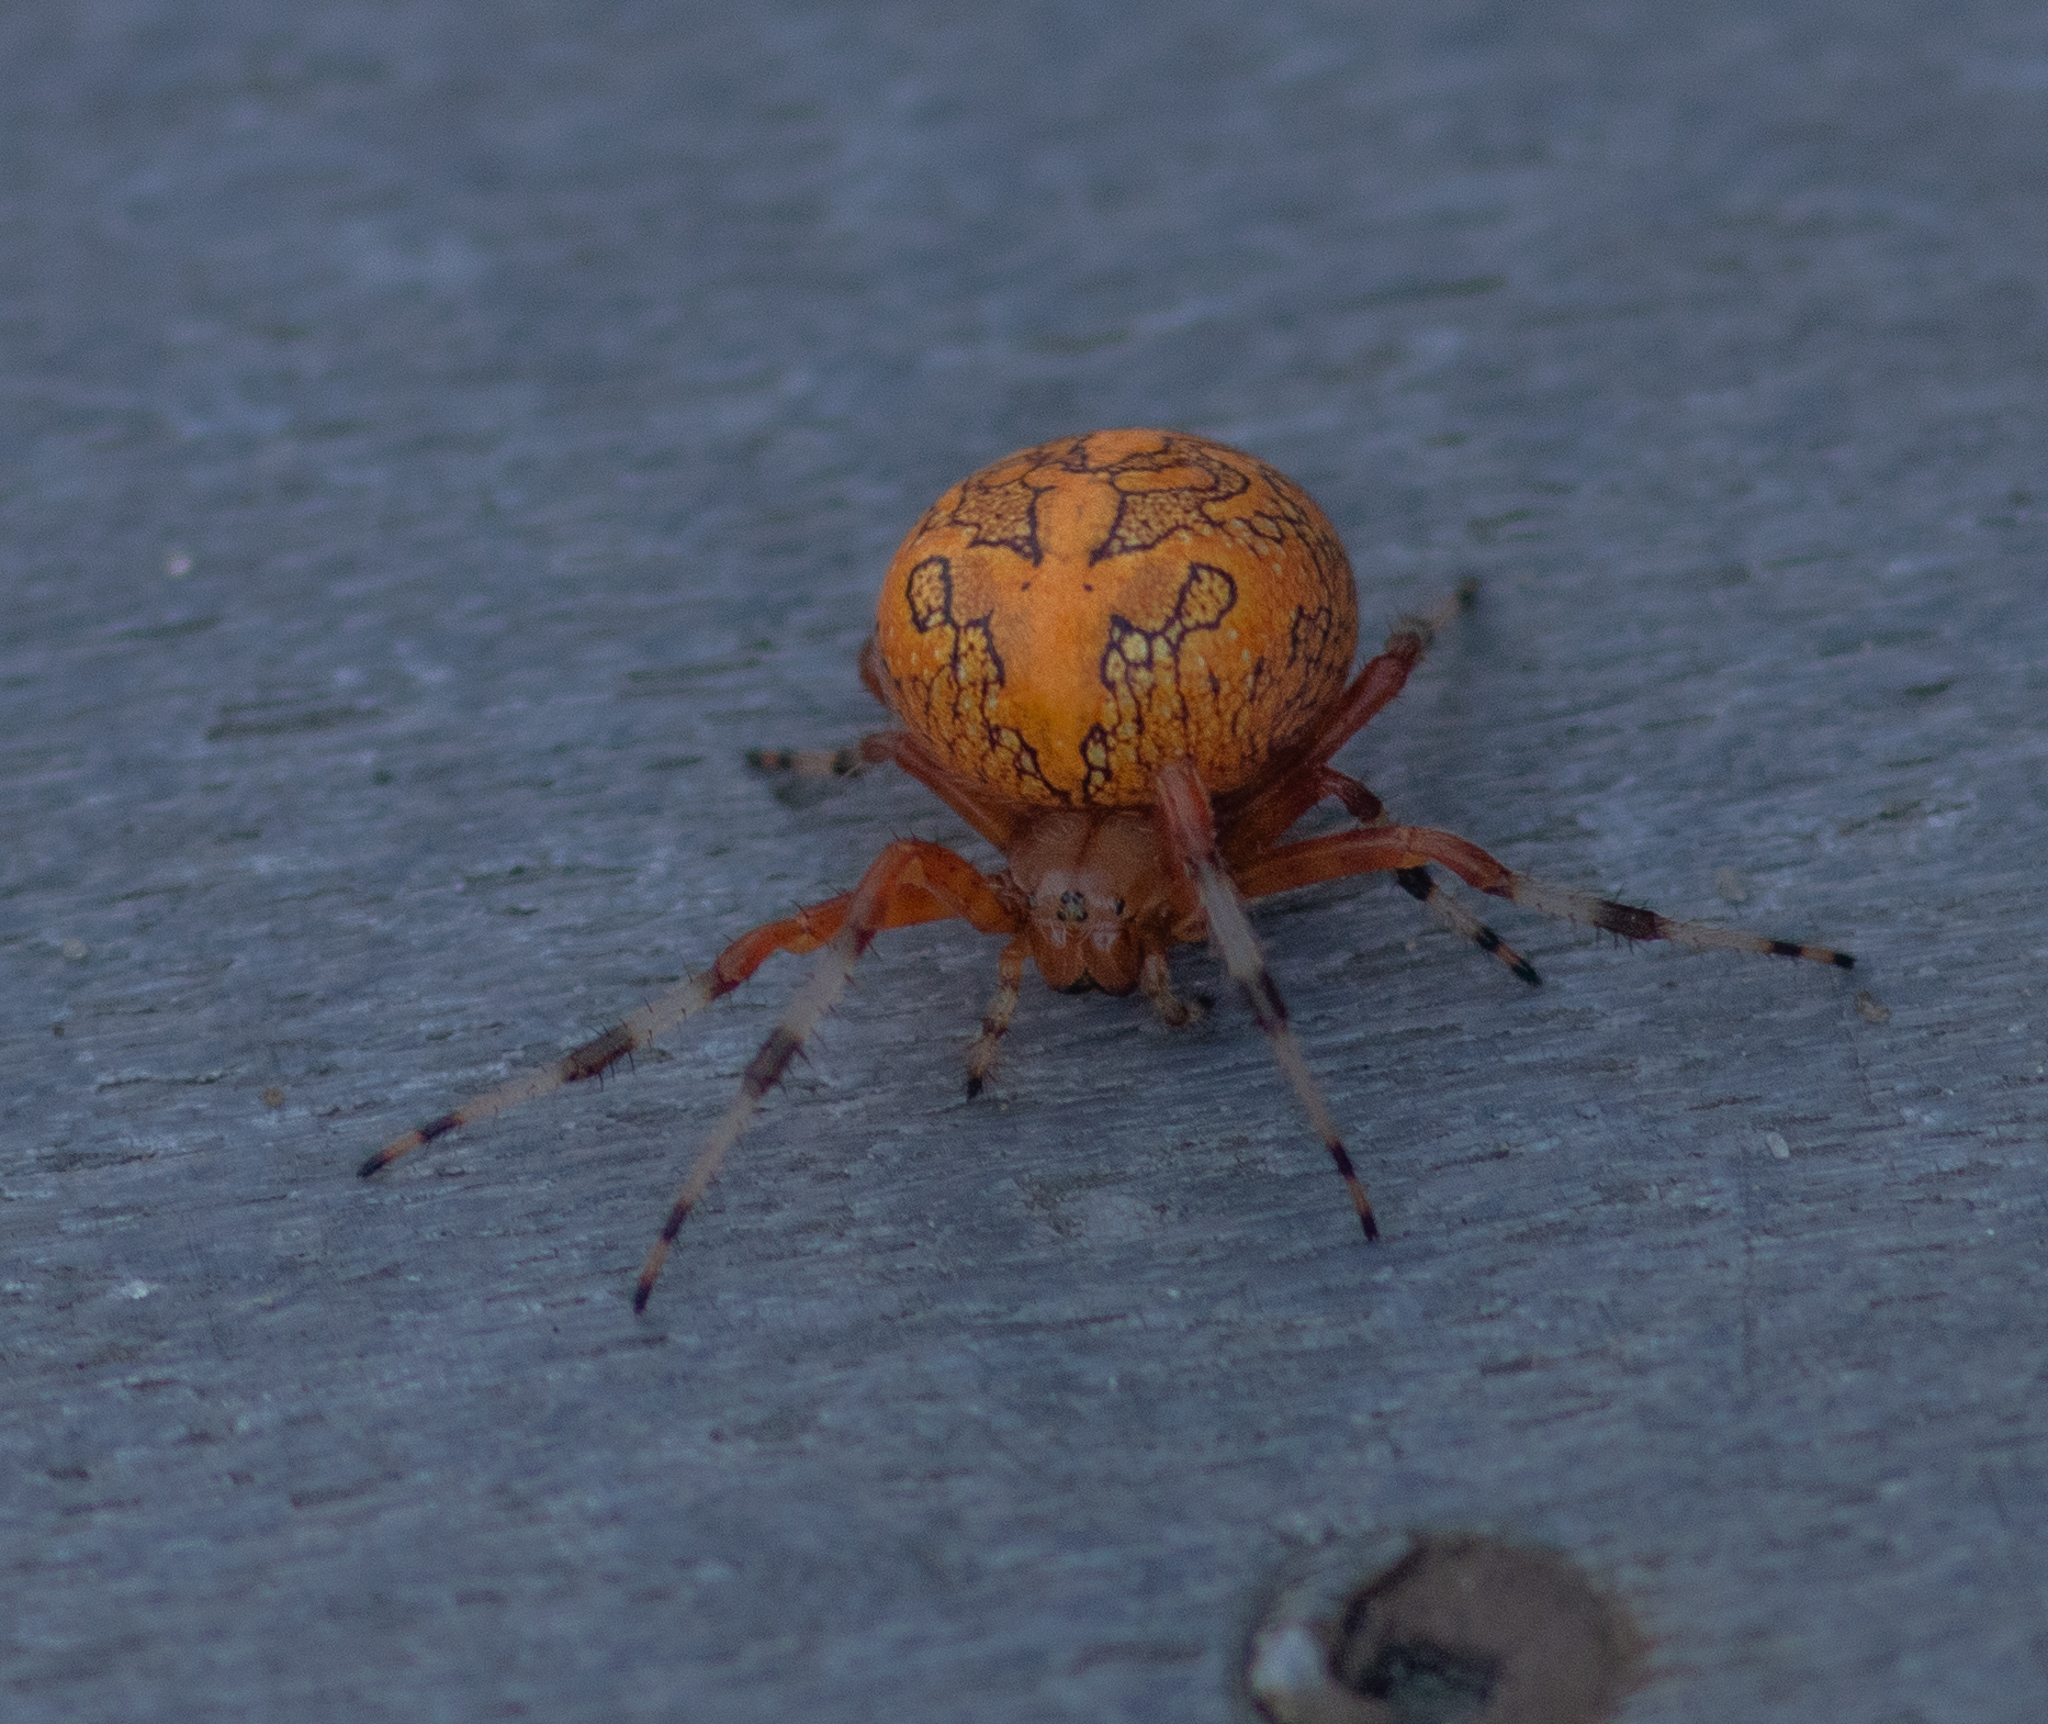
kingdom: Animalia
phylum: Arthropoda
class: Arachnida
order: Araneae
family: Araneidae
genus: Araneus
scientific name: Araneus marmoreus
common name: Marbled orbweaver
